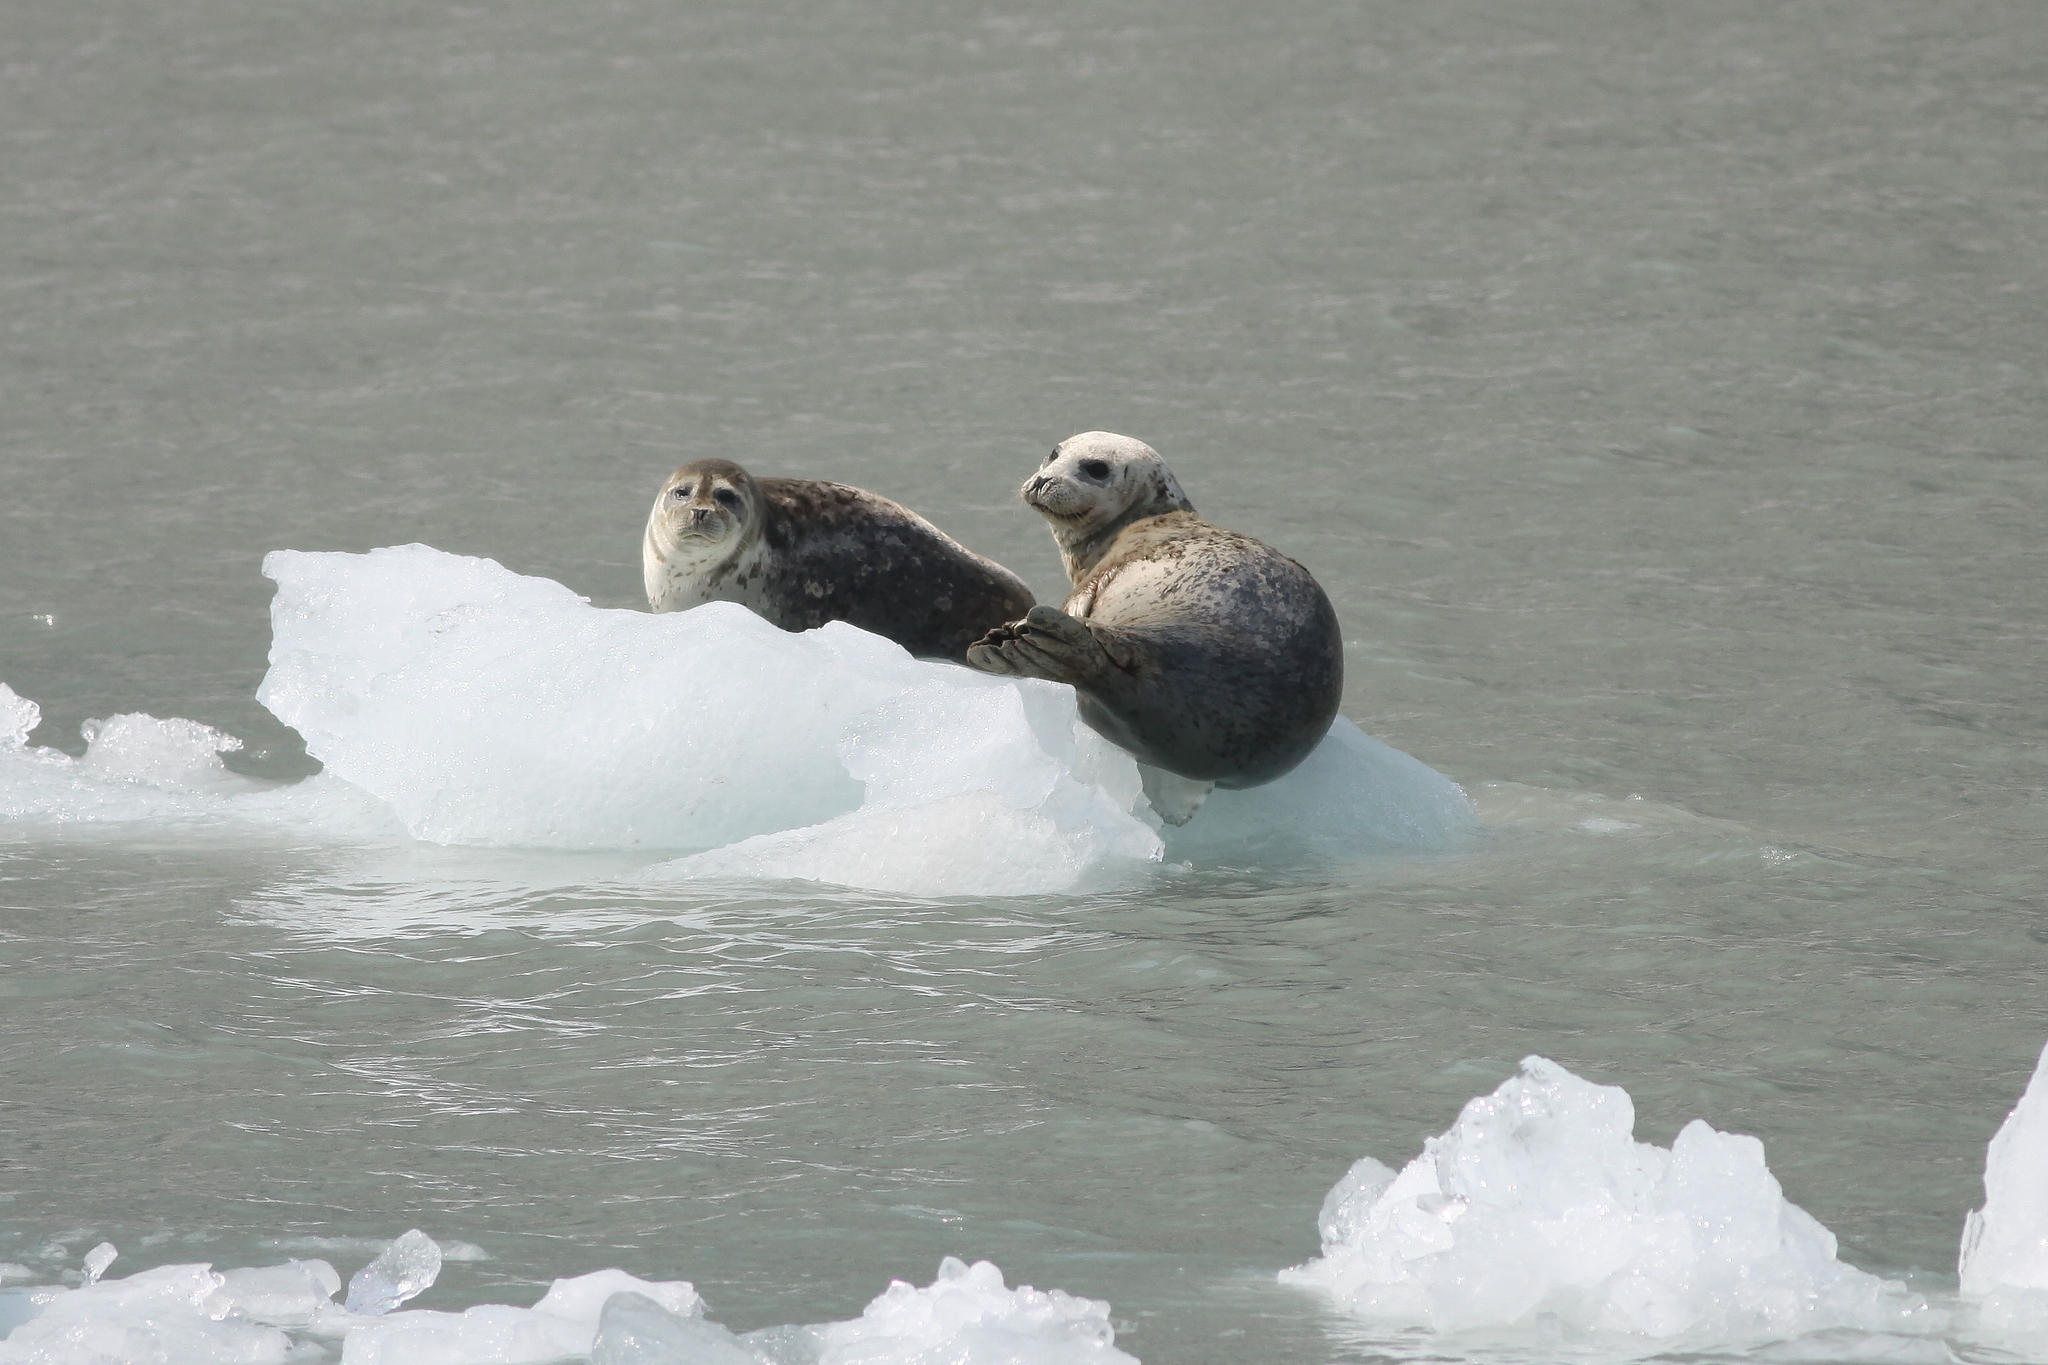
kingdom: Animalia
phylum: Chordata
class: Mammalia
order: Carnivora
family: Phocidae
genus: Phoca
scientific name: Phoca vitulina
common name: Harbor seal
